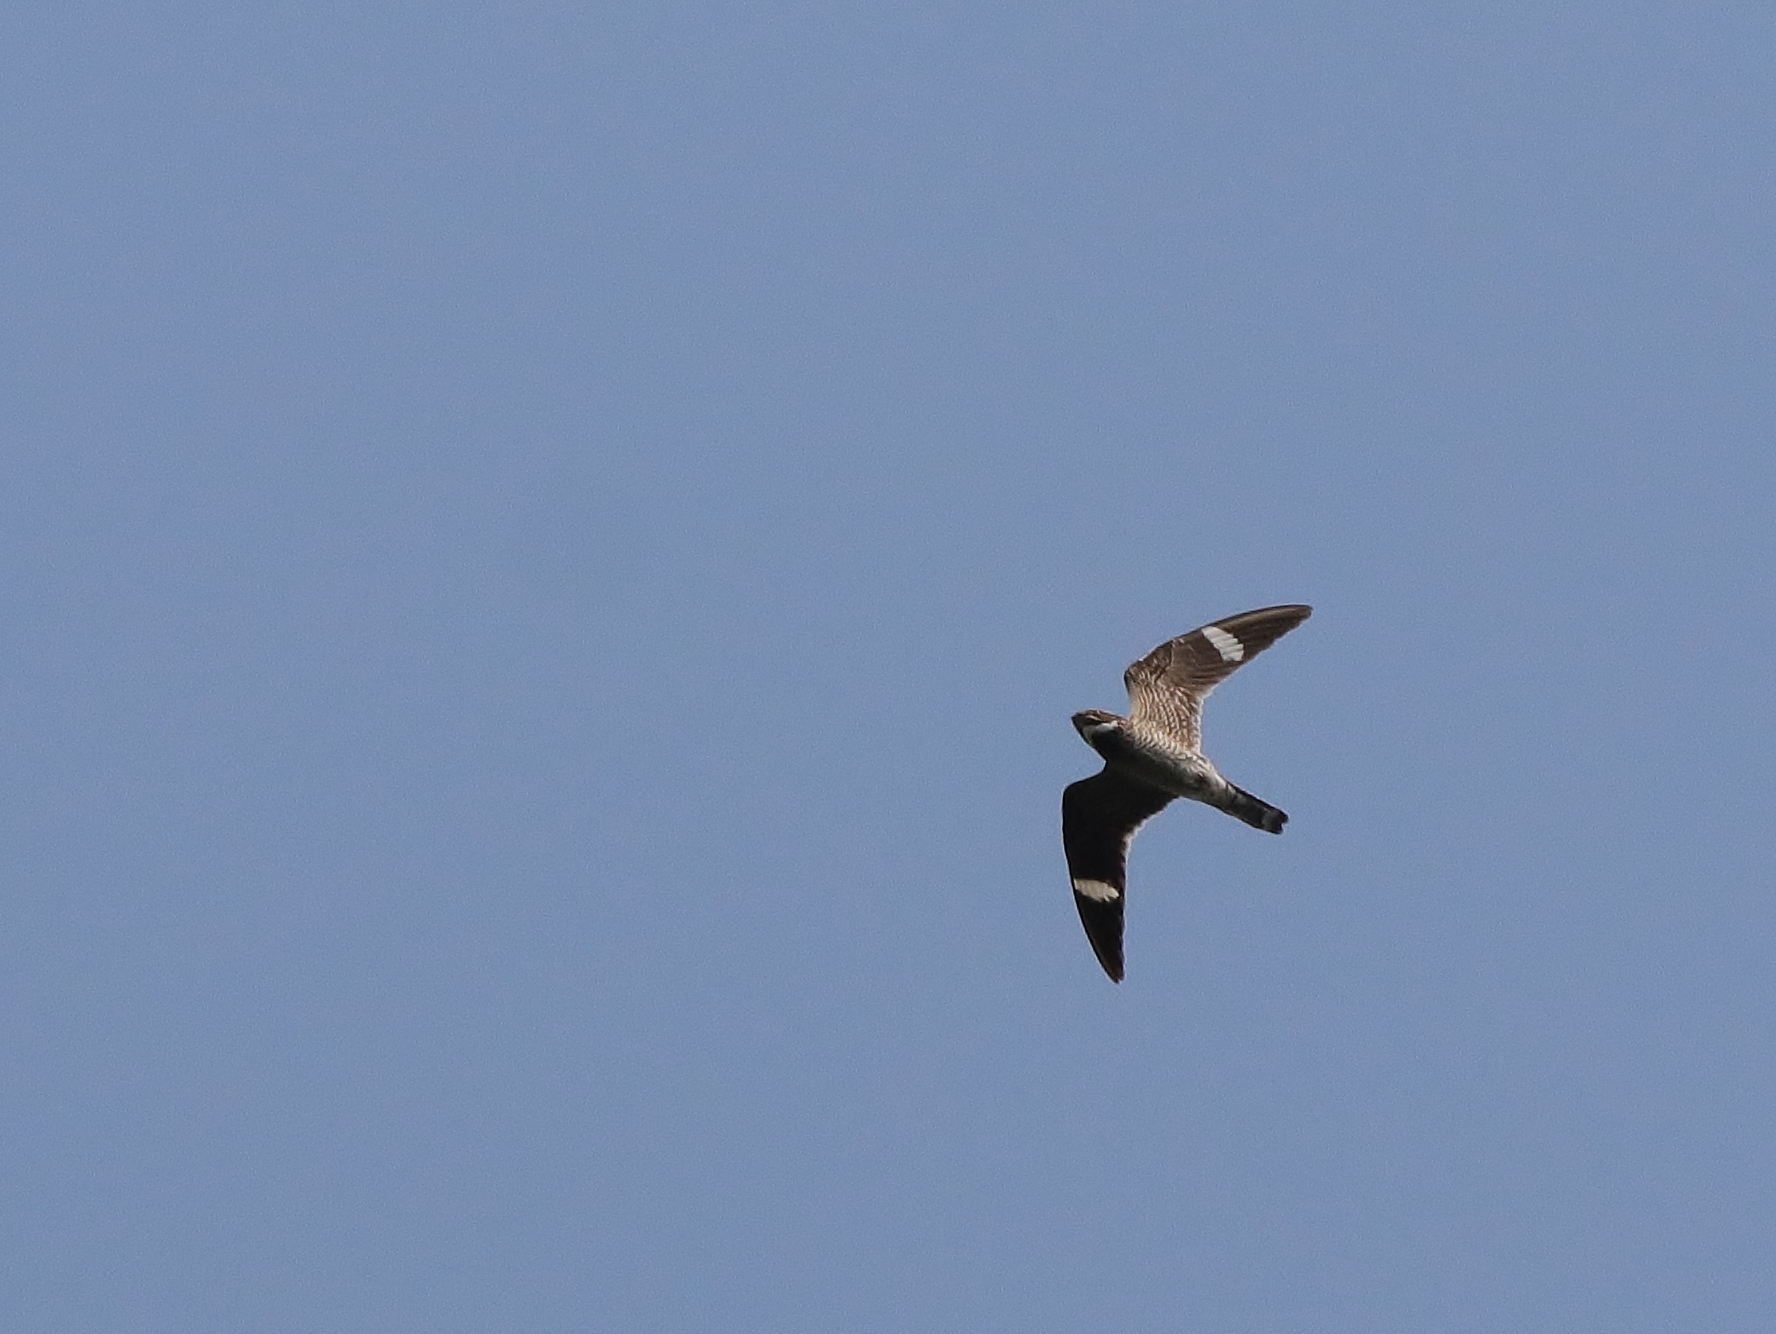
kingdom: Animalia
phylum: Chordata
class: Aves
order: Caprimulgiformes
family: Caprimulgidae
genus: Chordeiles
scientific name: Chordeiles minor
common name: Common nighthawk
